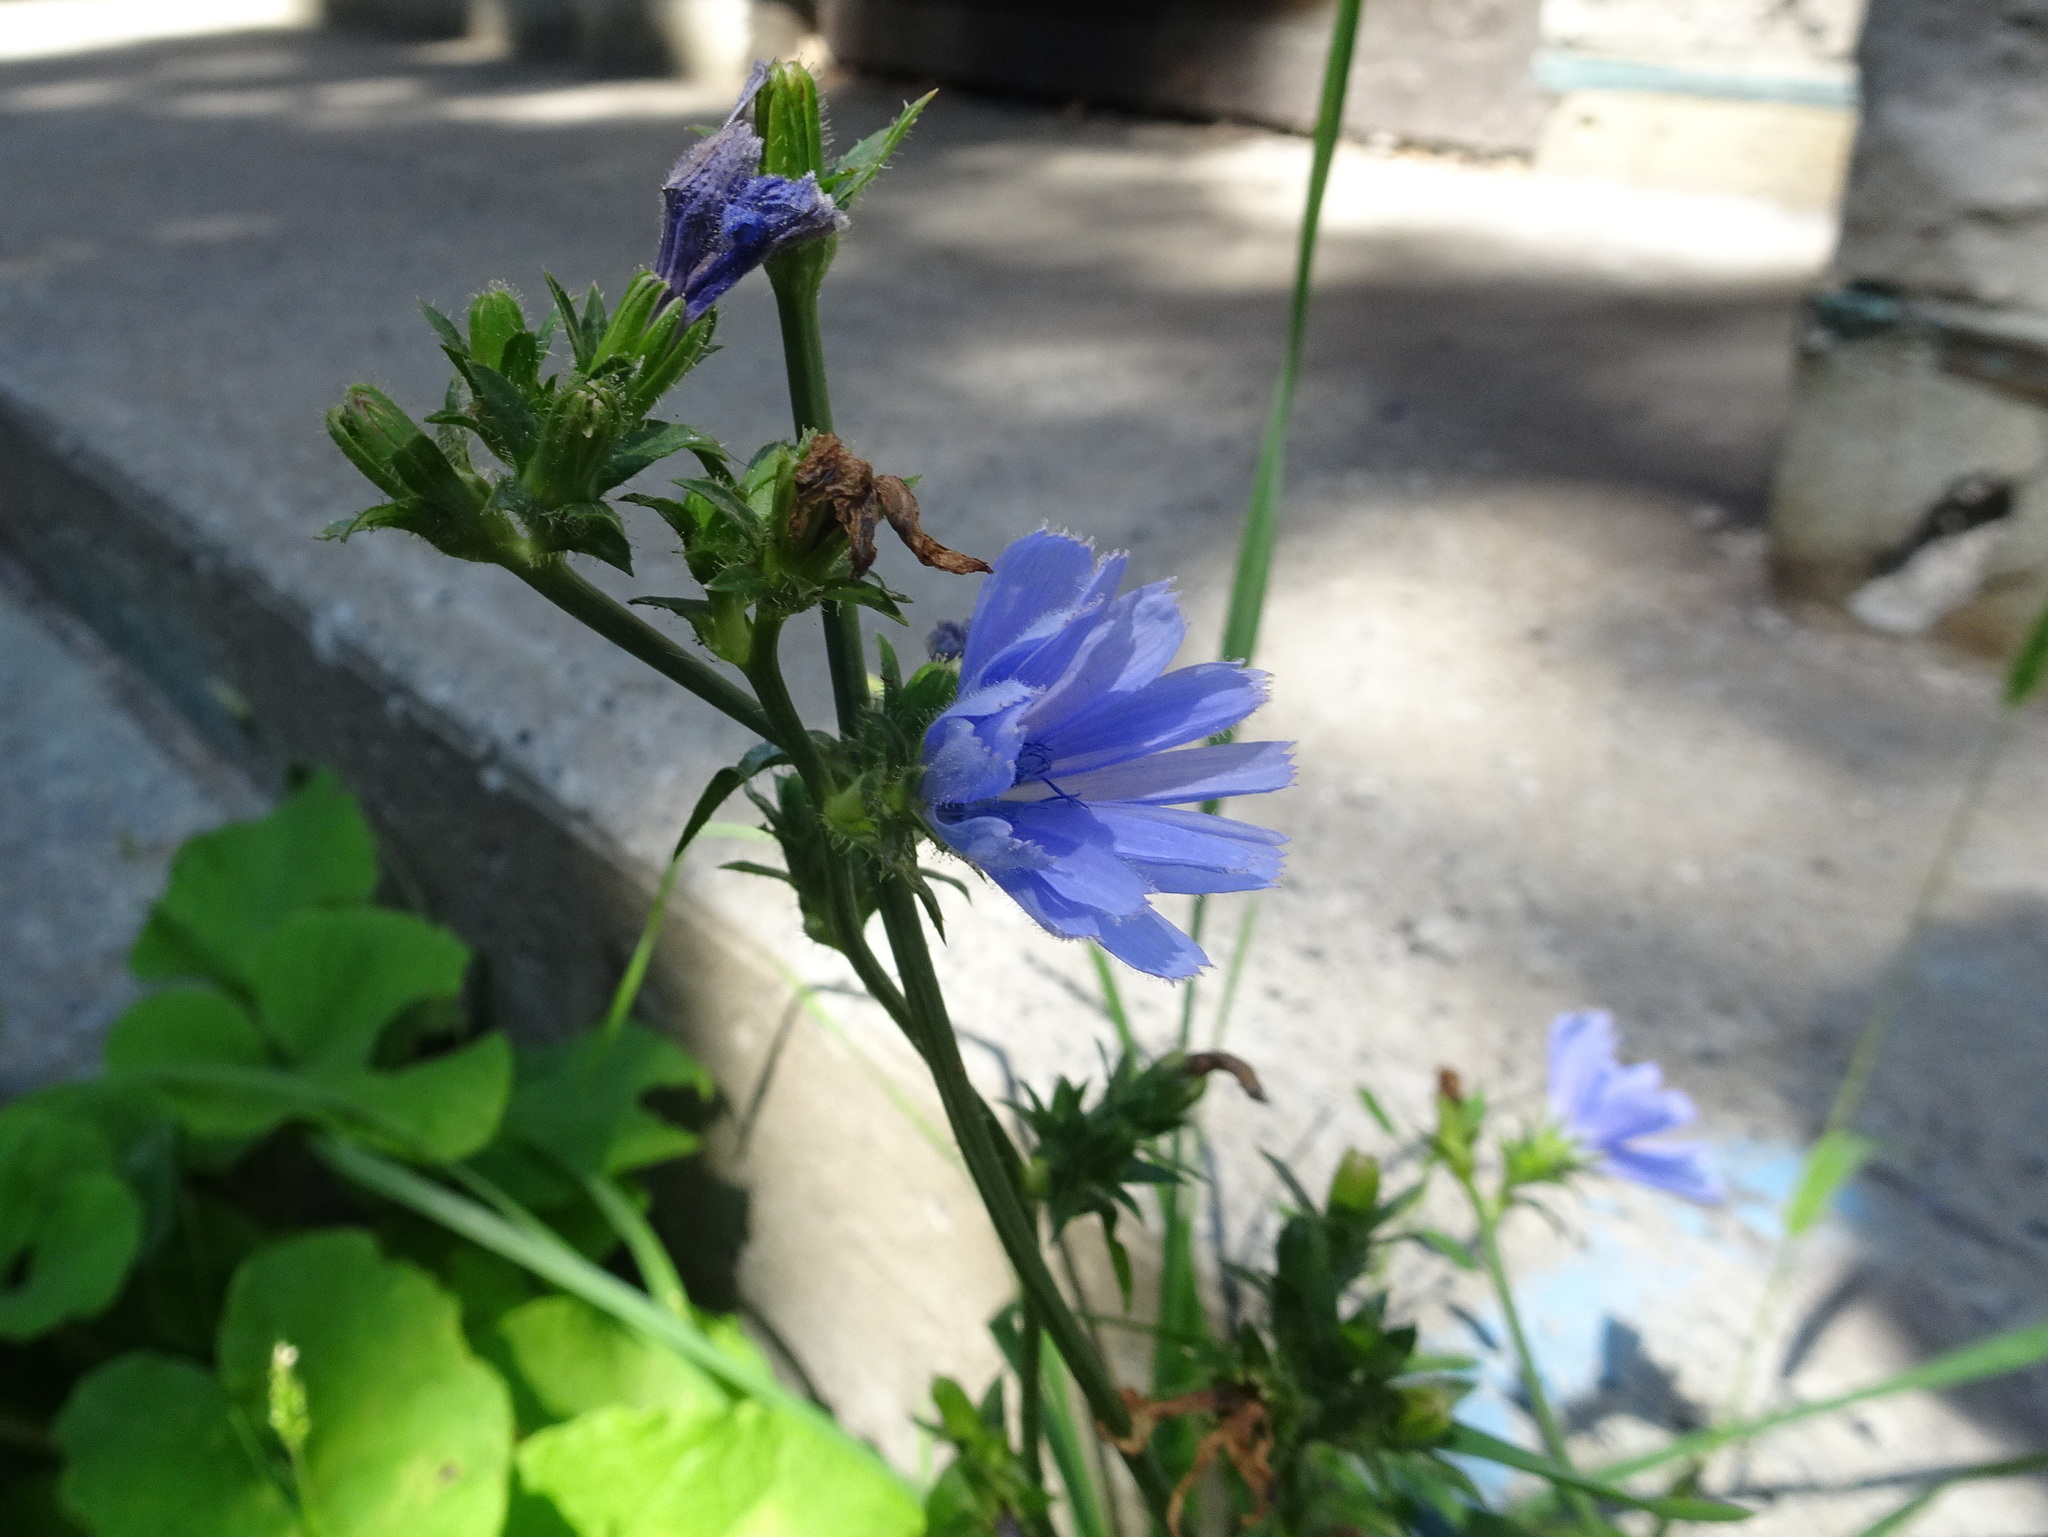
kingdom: Plantae
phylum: Tracheophyta
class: Magnoliopsida
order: Asterales
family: Asteraceae
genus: Cichorium
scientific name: Cichorium intybus
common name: Chicory
